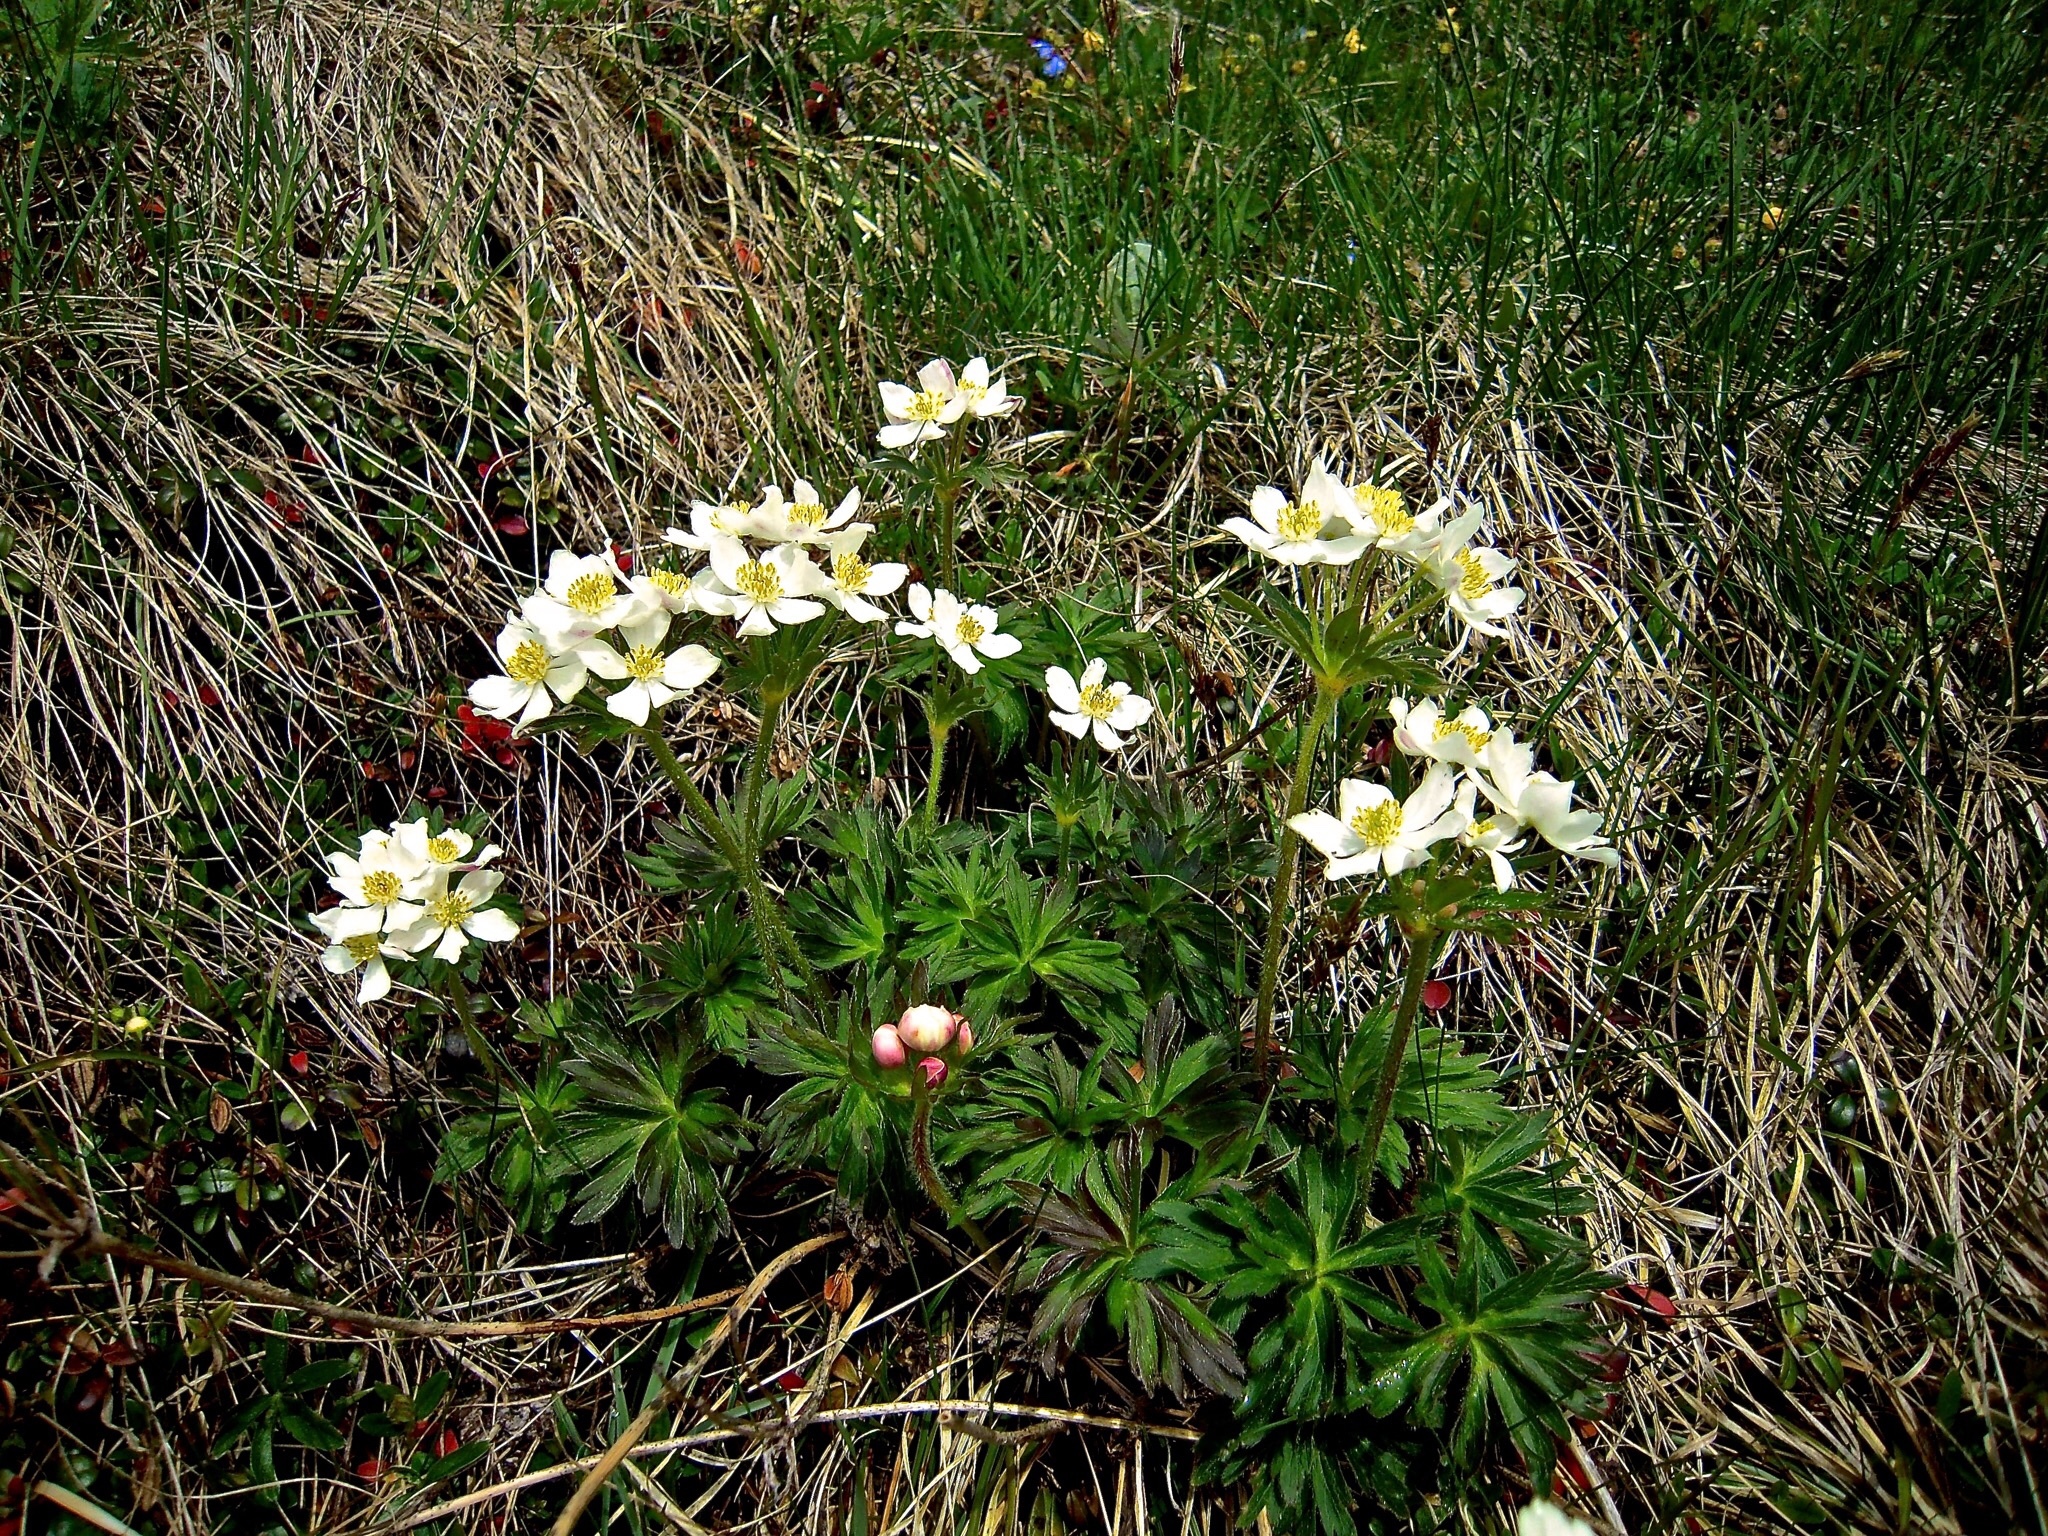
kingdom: Plantae
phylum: Tracheophyta
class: Magnoliopsida
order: Ranunculales
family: Ranunculaceae
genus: Anemonastrum
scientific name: Anemonastrum narcissiflorum
